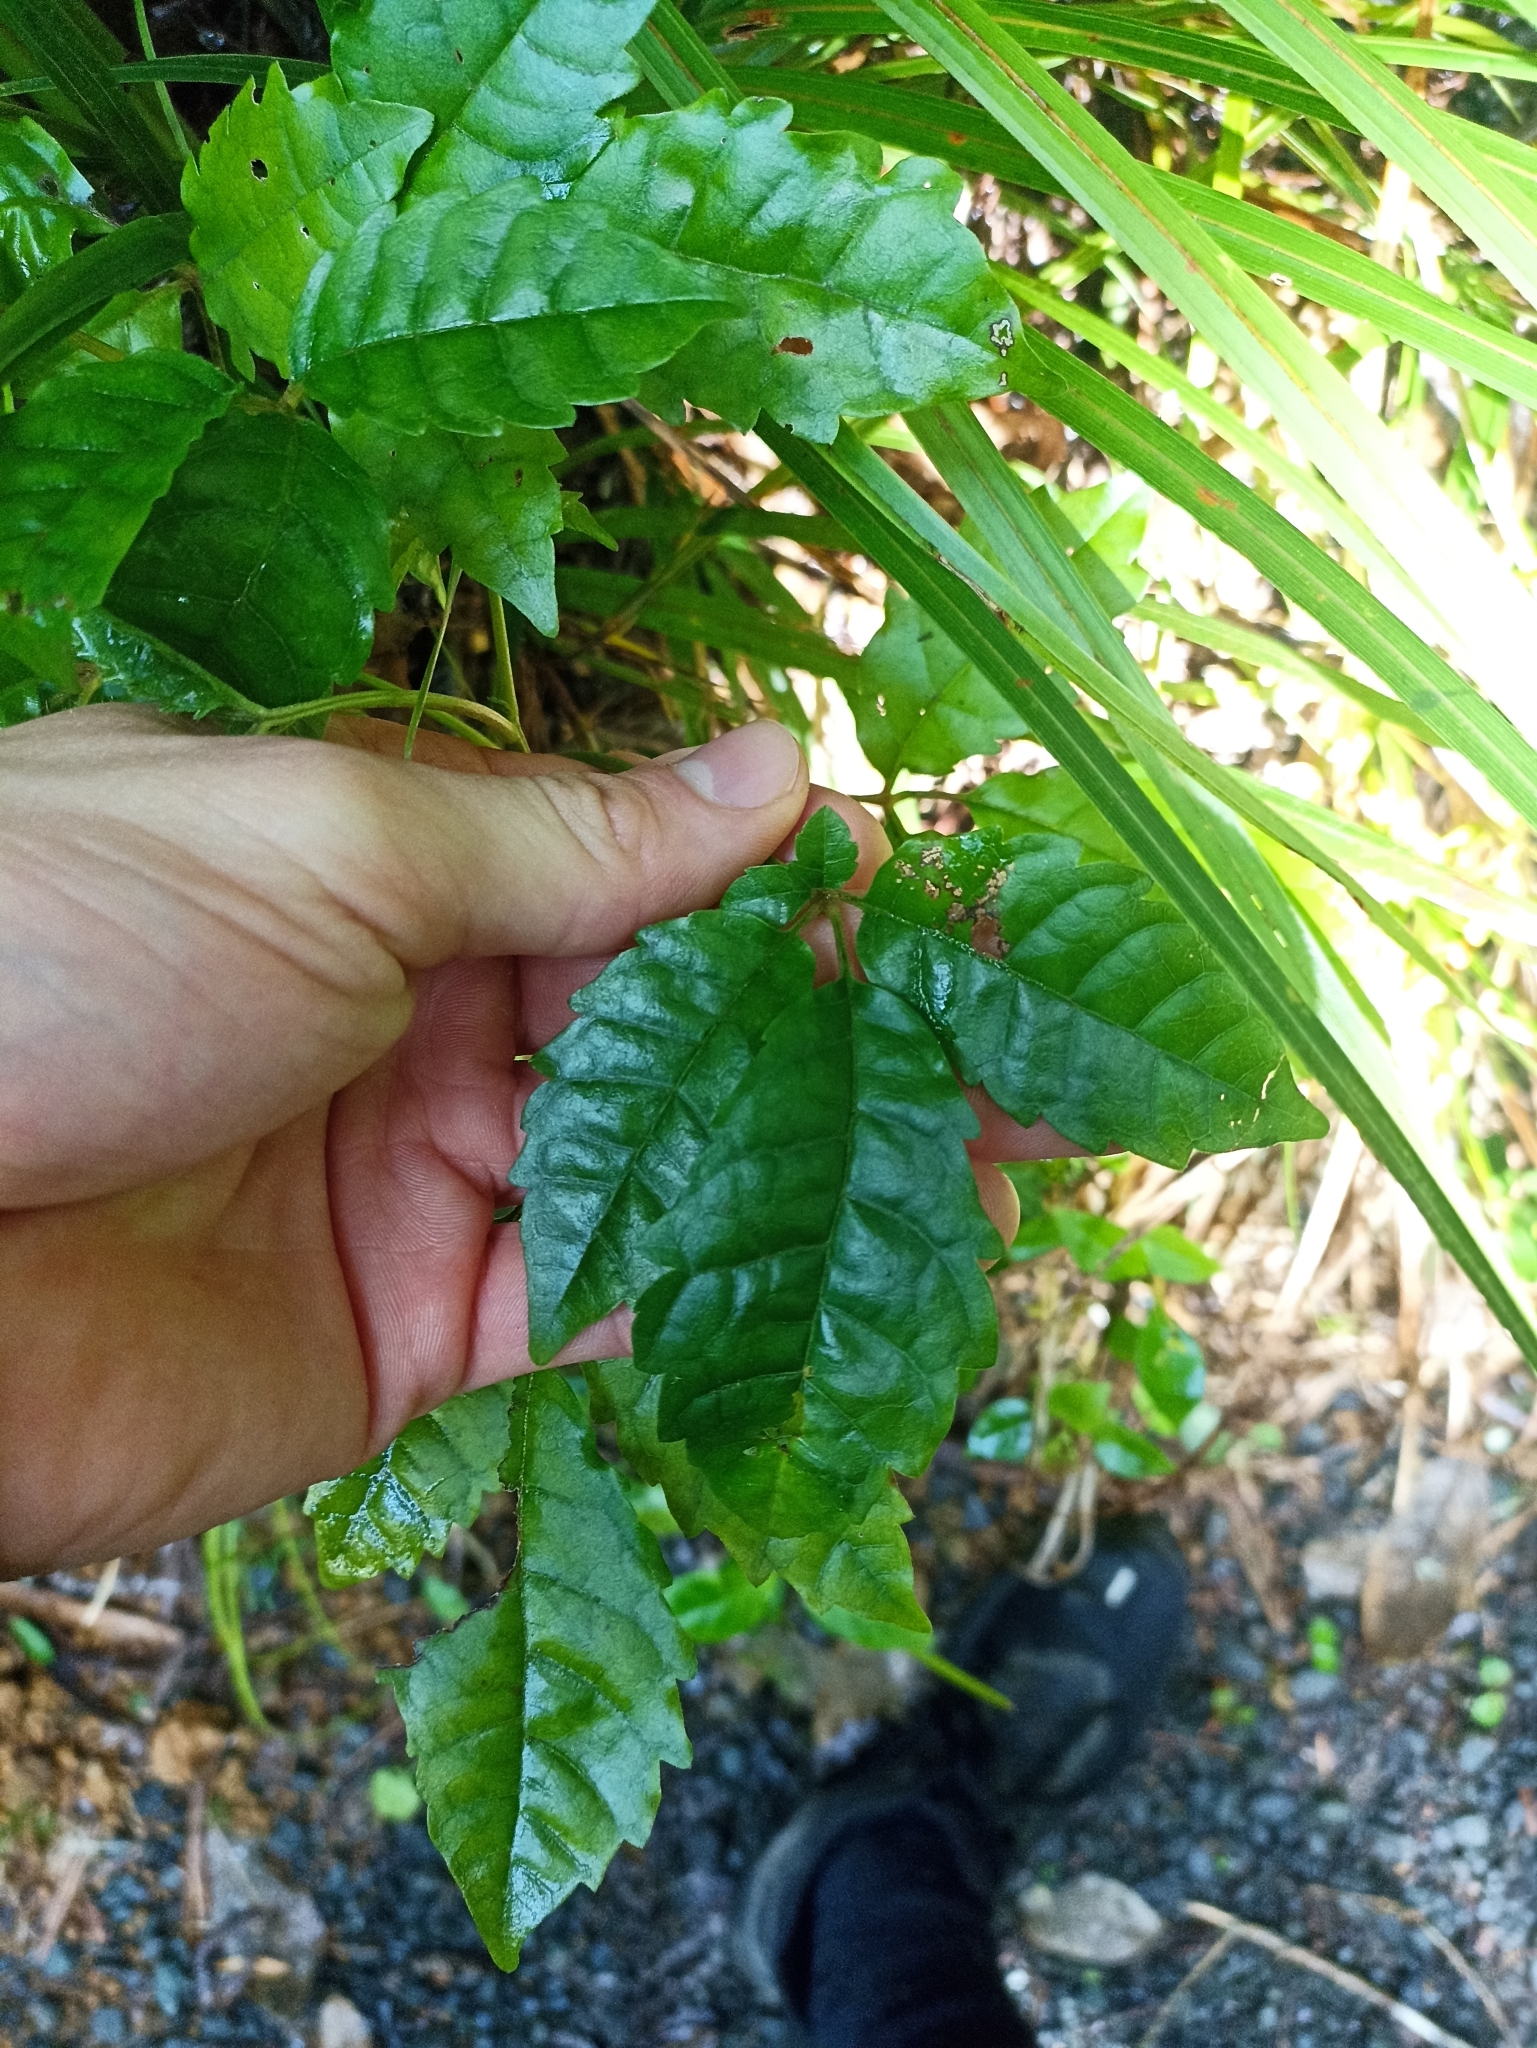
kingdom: Plantae
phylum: Tracheophyta
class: Magnoliopsida
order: Lamiales
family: Lamiaceae
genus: Vitex
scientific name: Vitex lucens
